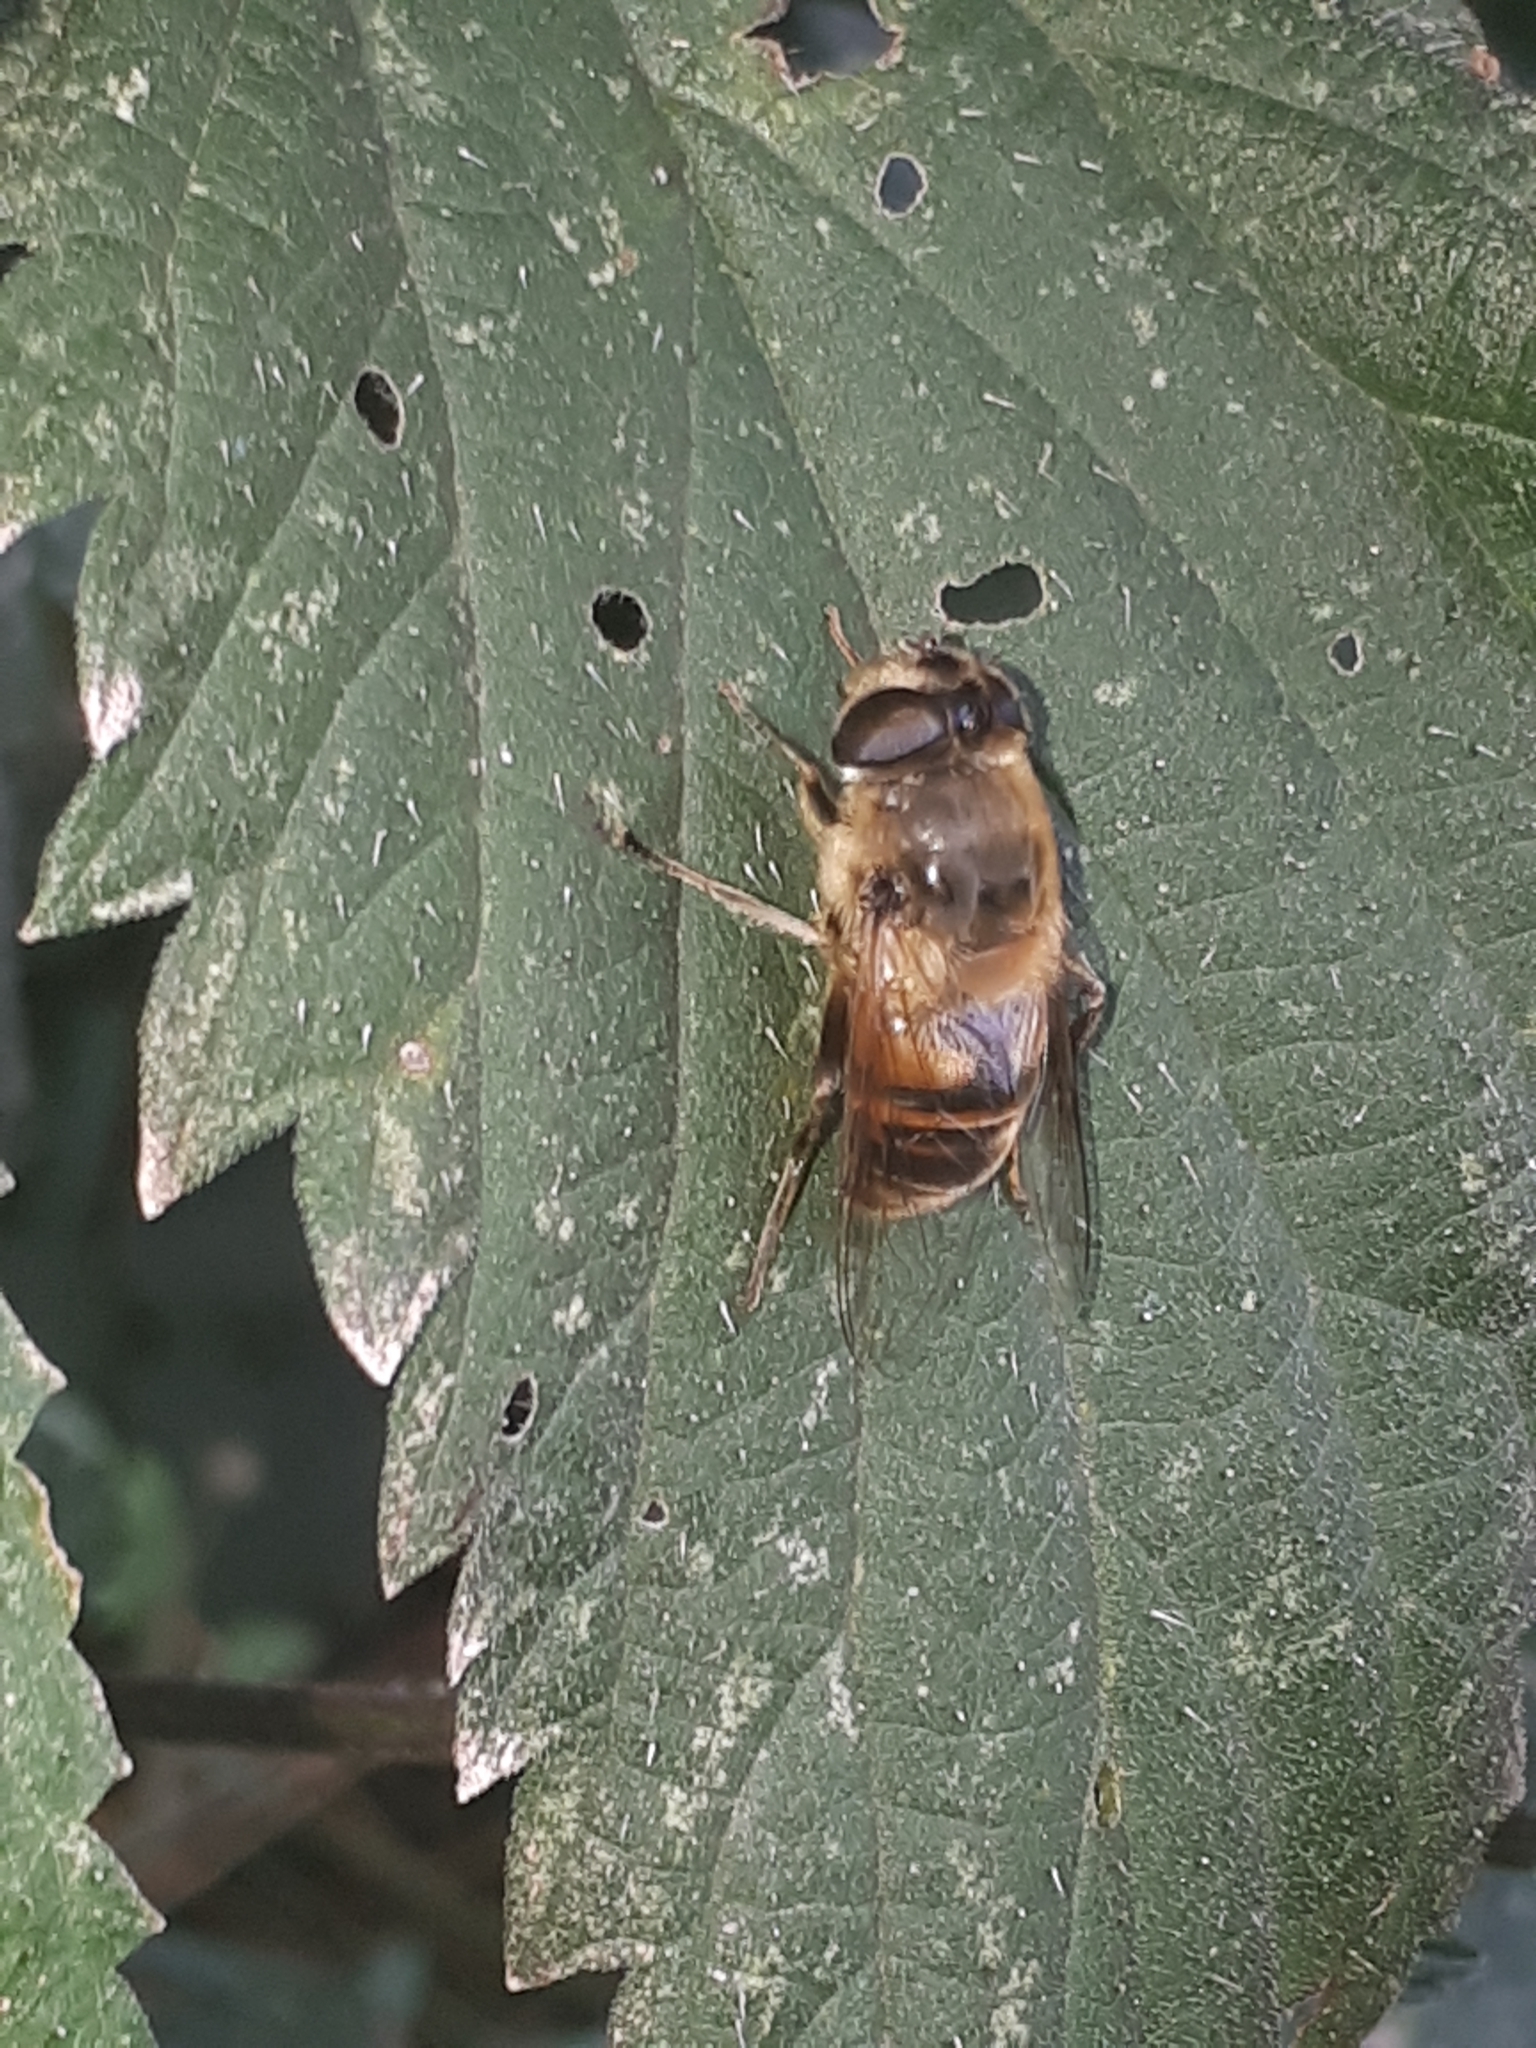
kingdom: Animalia
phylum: Arthropoda
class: Insecta
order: Diptera
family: Syrphidae
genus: Eristalis
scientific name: Eristalis tenax
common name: Drone fly
